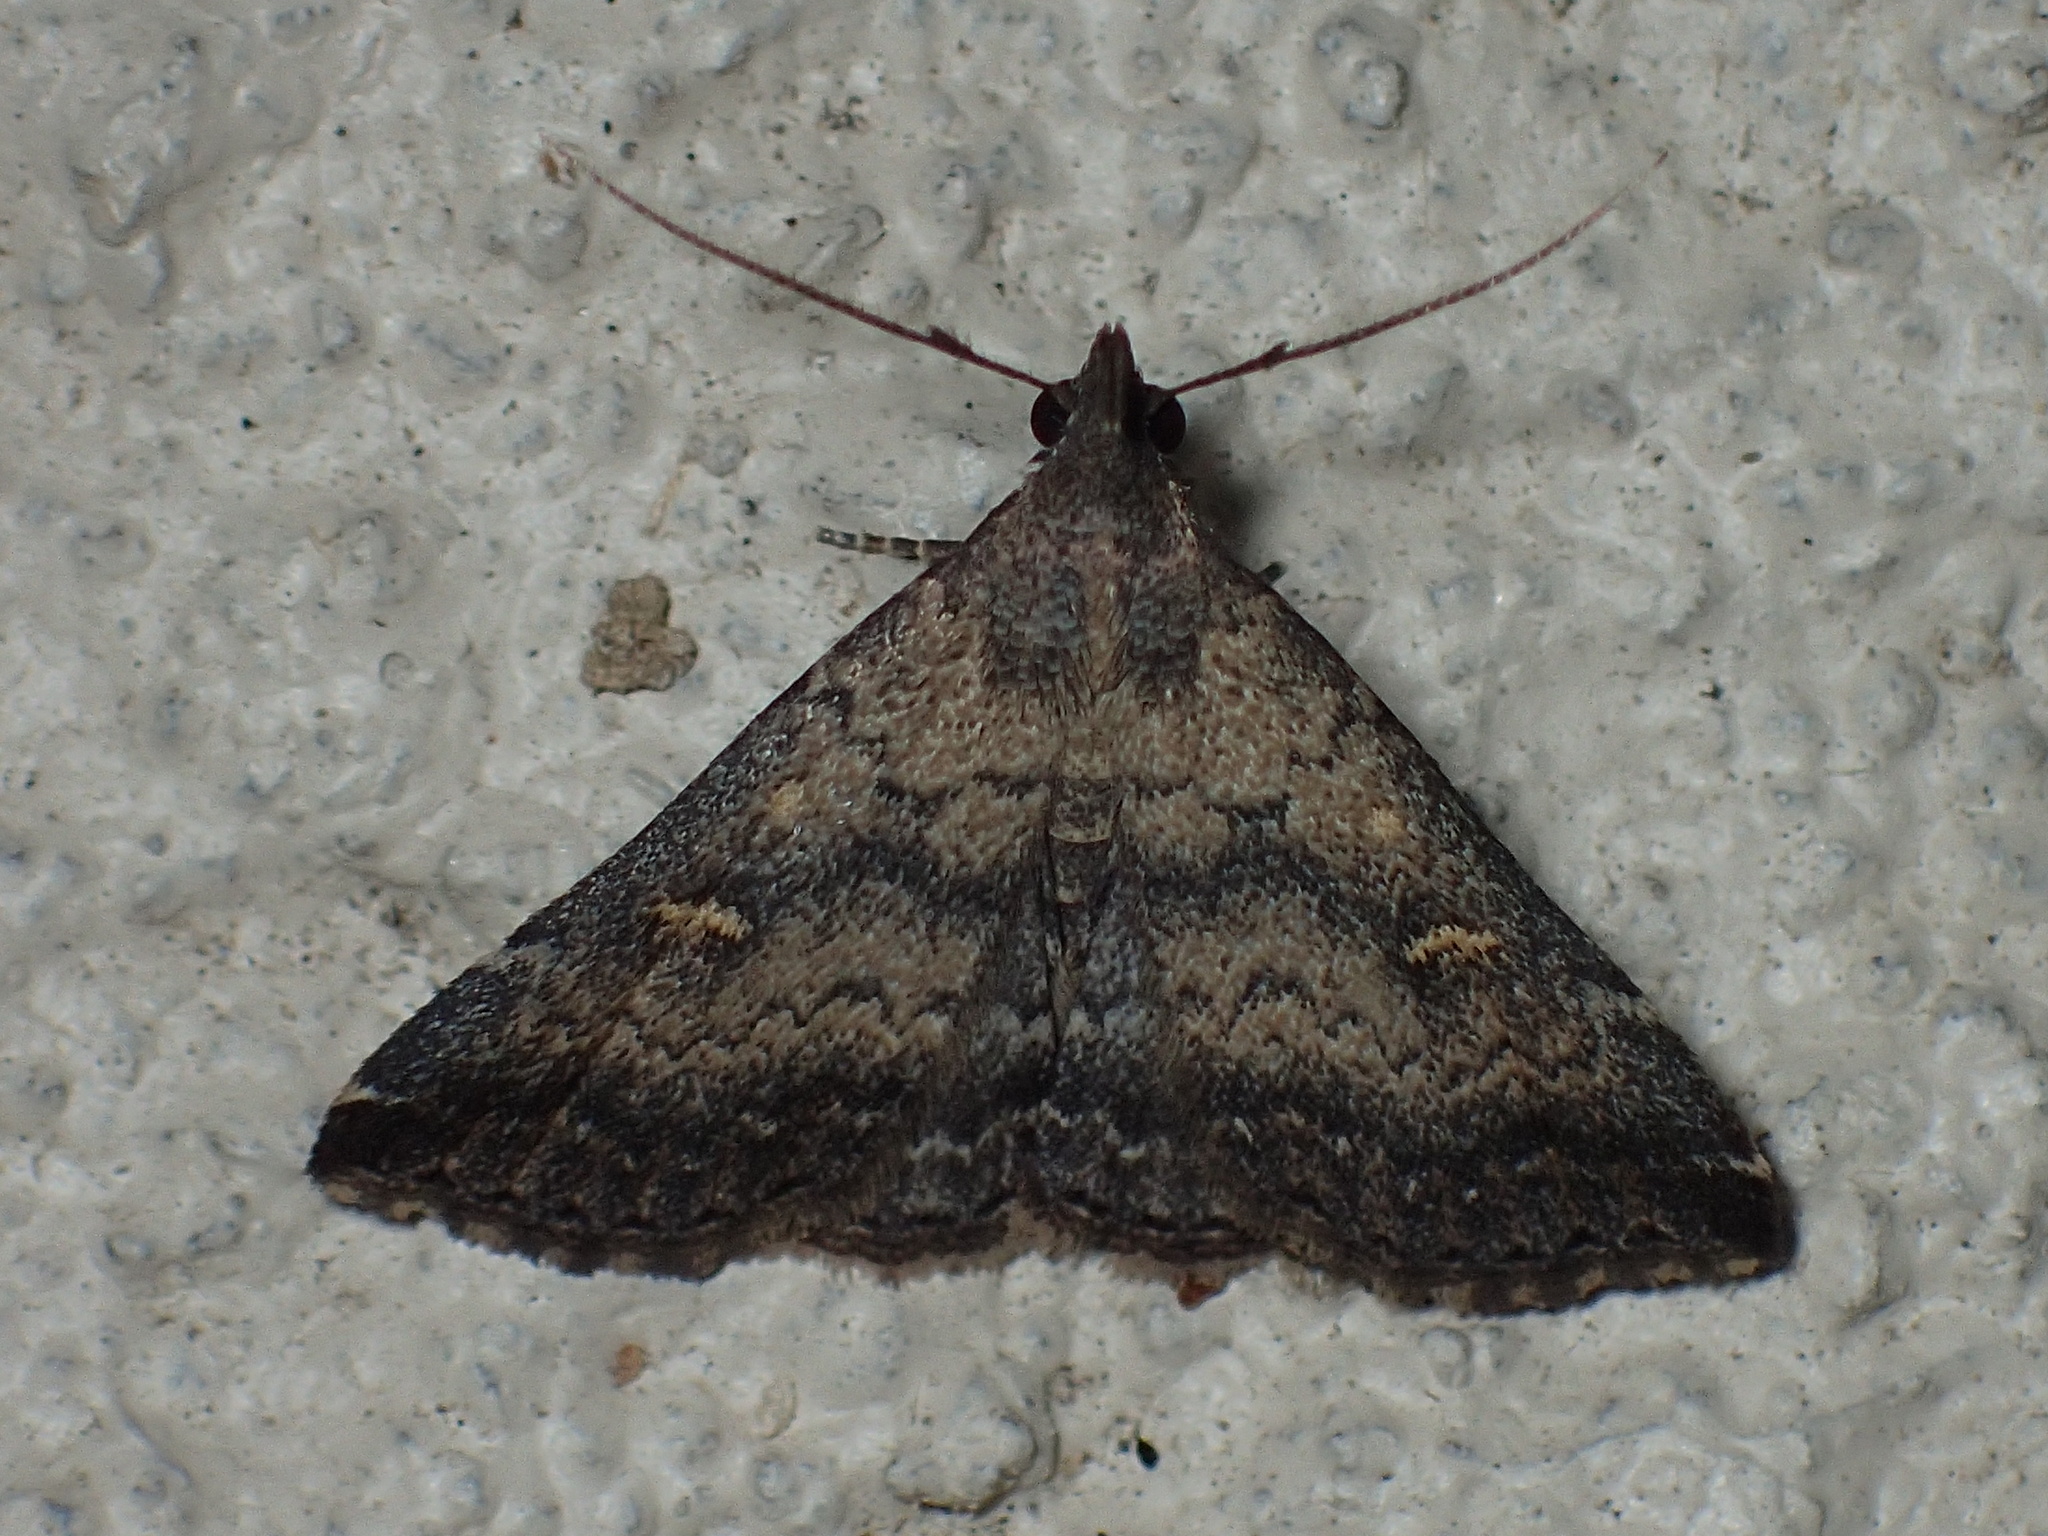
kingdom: Animalia
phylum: Arthropoda
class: Insecta
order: Lepidoptera
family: Erebidae
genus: Tetanolita
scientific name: Tetanolita floridana
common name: Florida tetanolita moth
